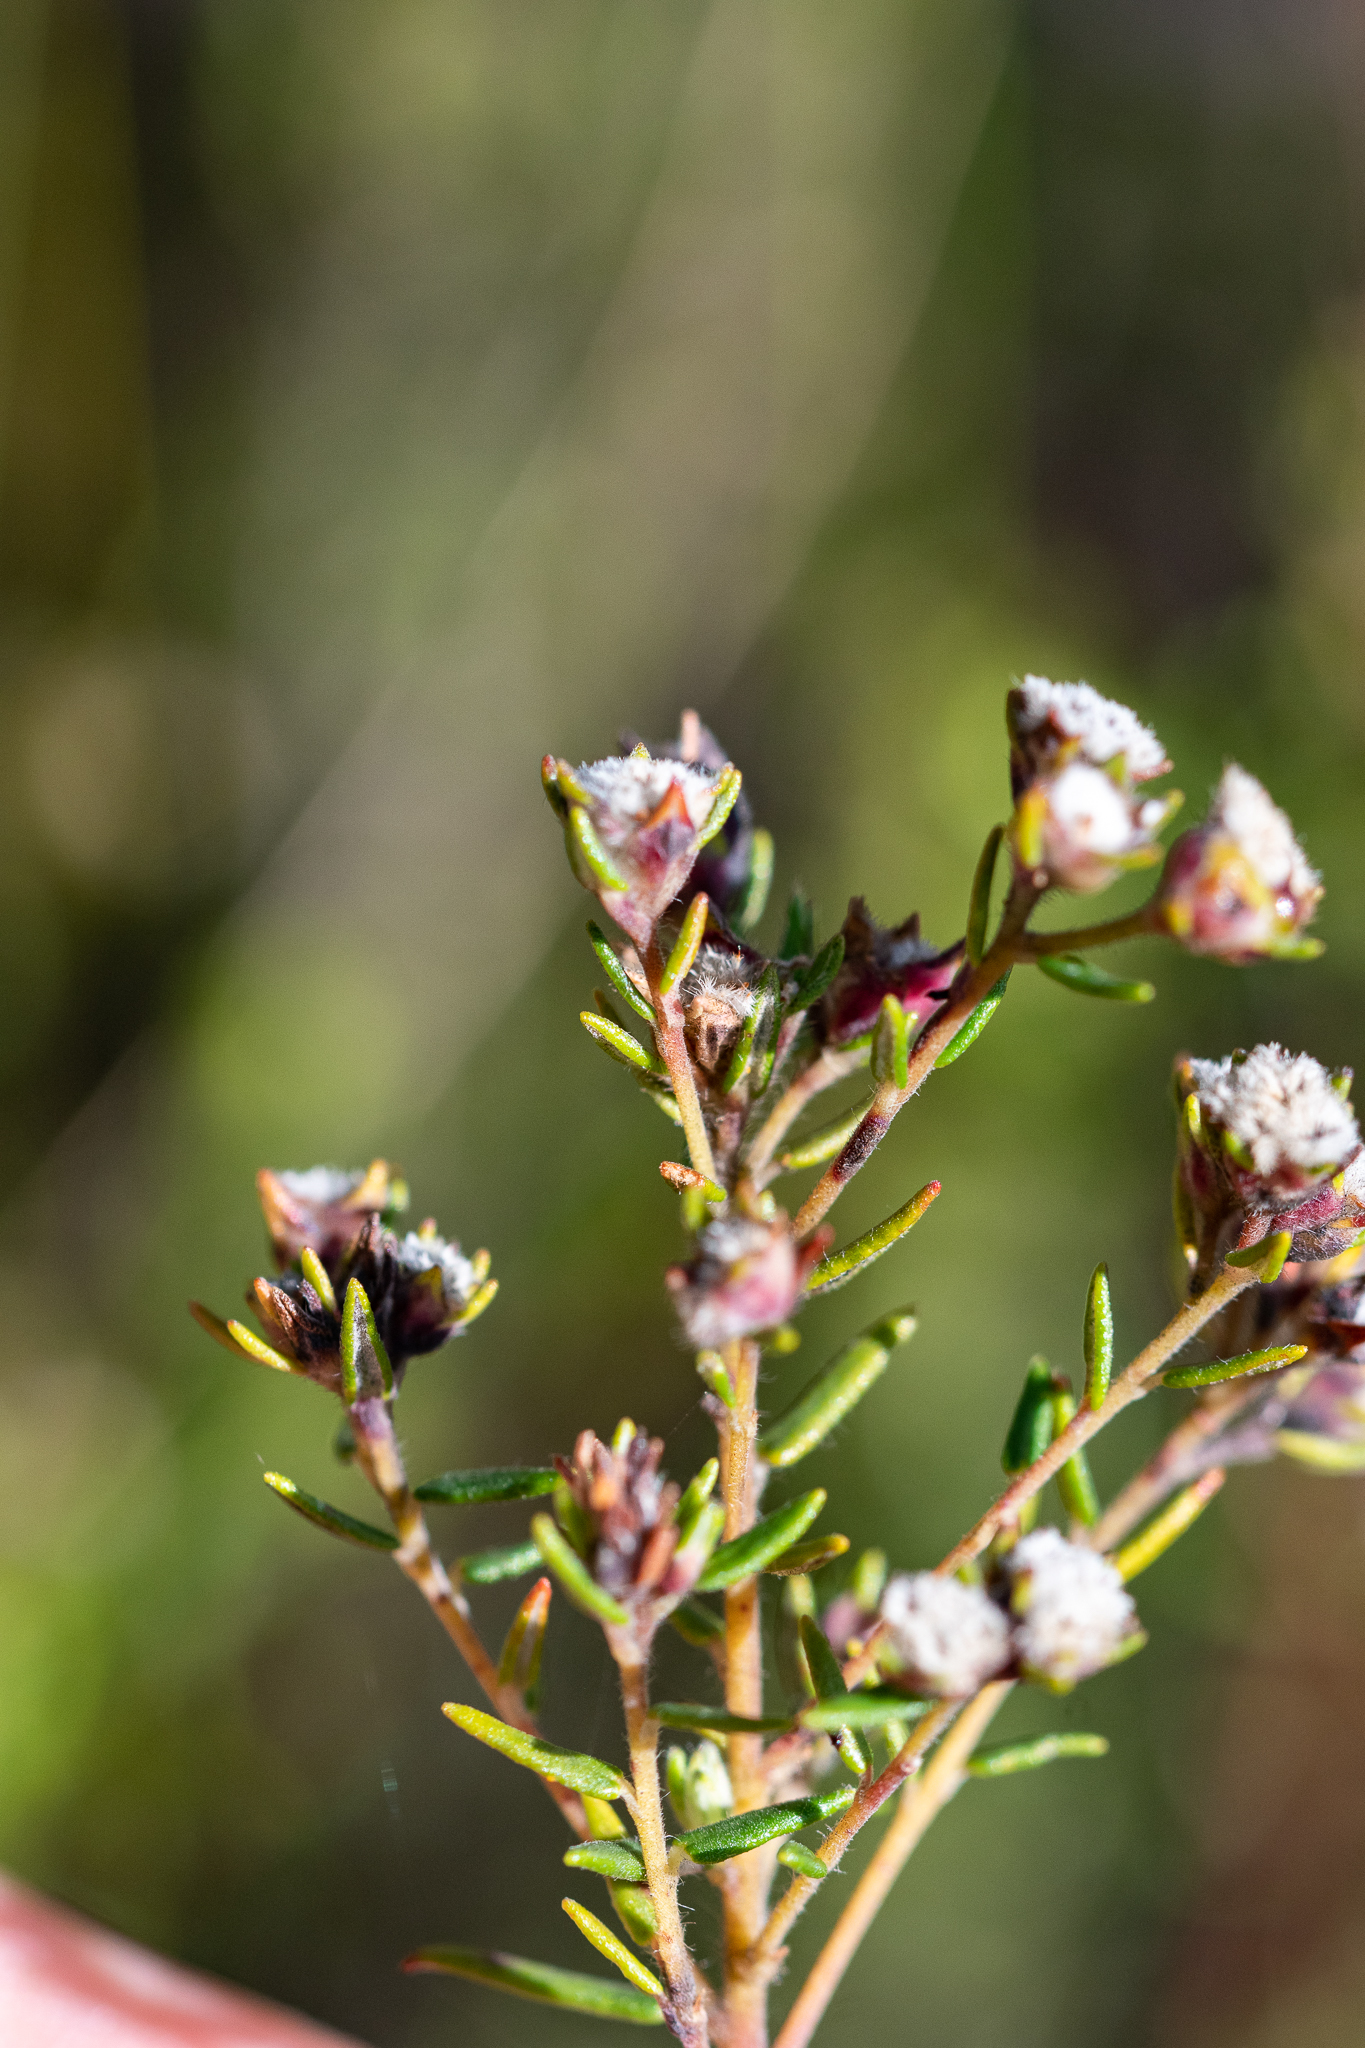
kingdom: Plantae
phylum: Tracheophyta
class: Magnoliopsida
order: Rosales
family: Rhamnaceae
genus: Phylica
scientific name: Phylica virgata
